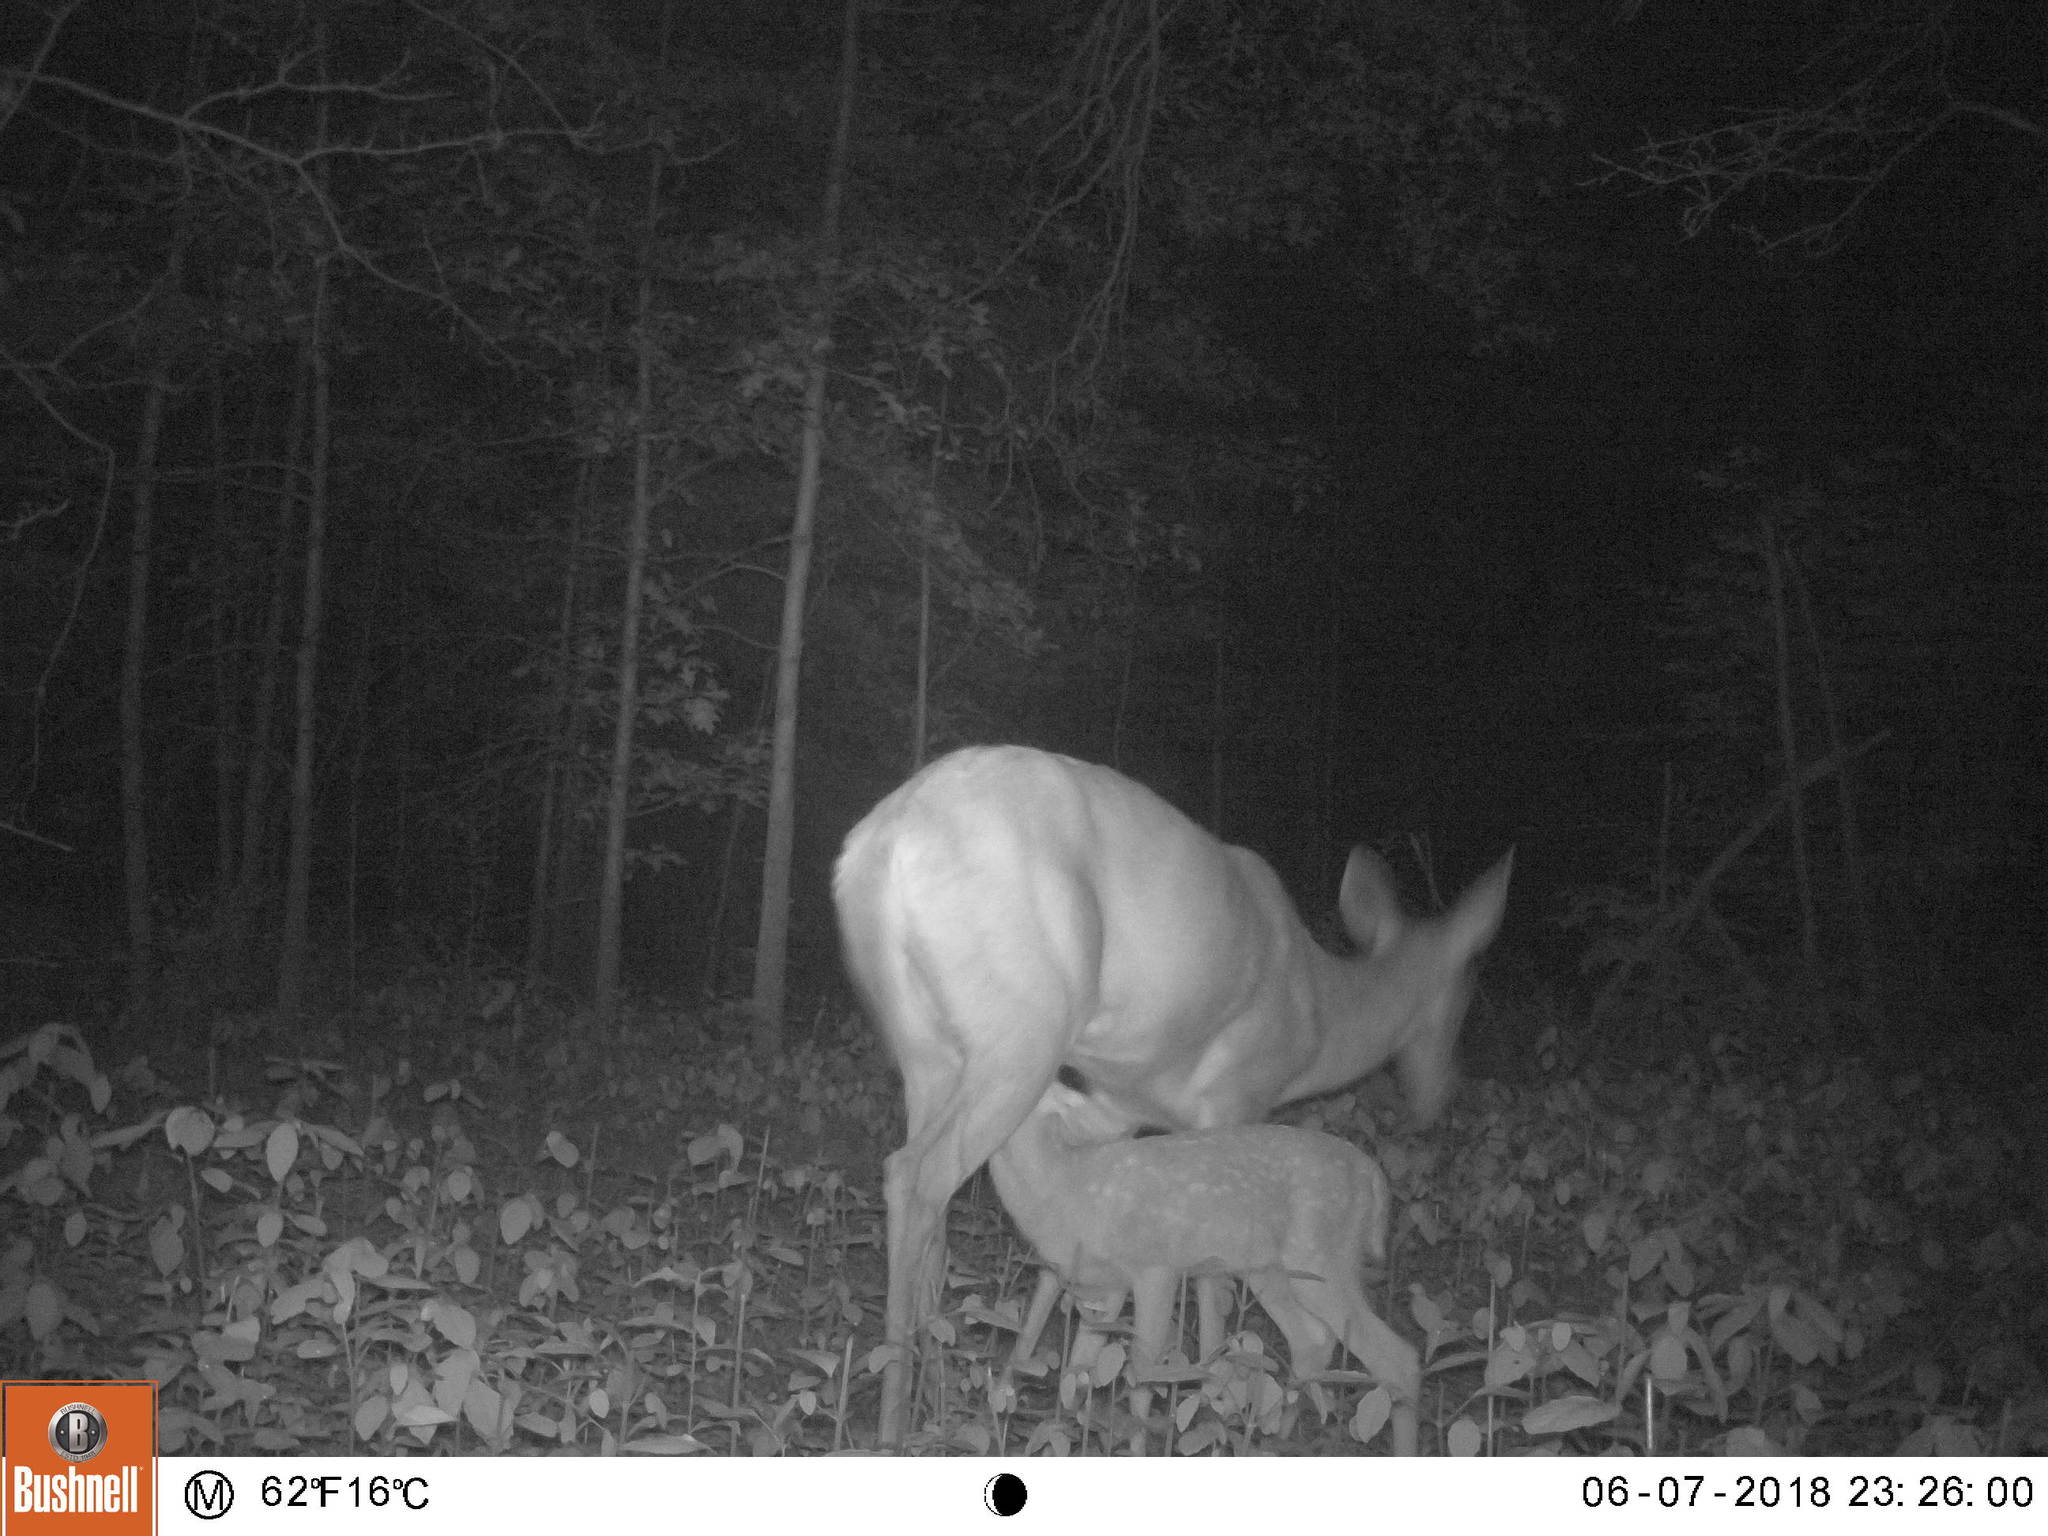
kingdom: Animalia
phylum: Chordata
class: Mammalia
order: Artiodactyla
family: Cervidae
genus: Odocoileus
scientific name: Odocoileus virginianus
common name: White-tailed deer
